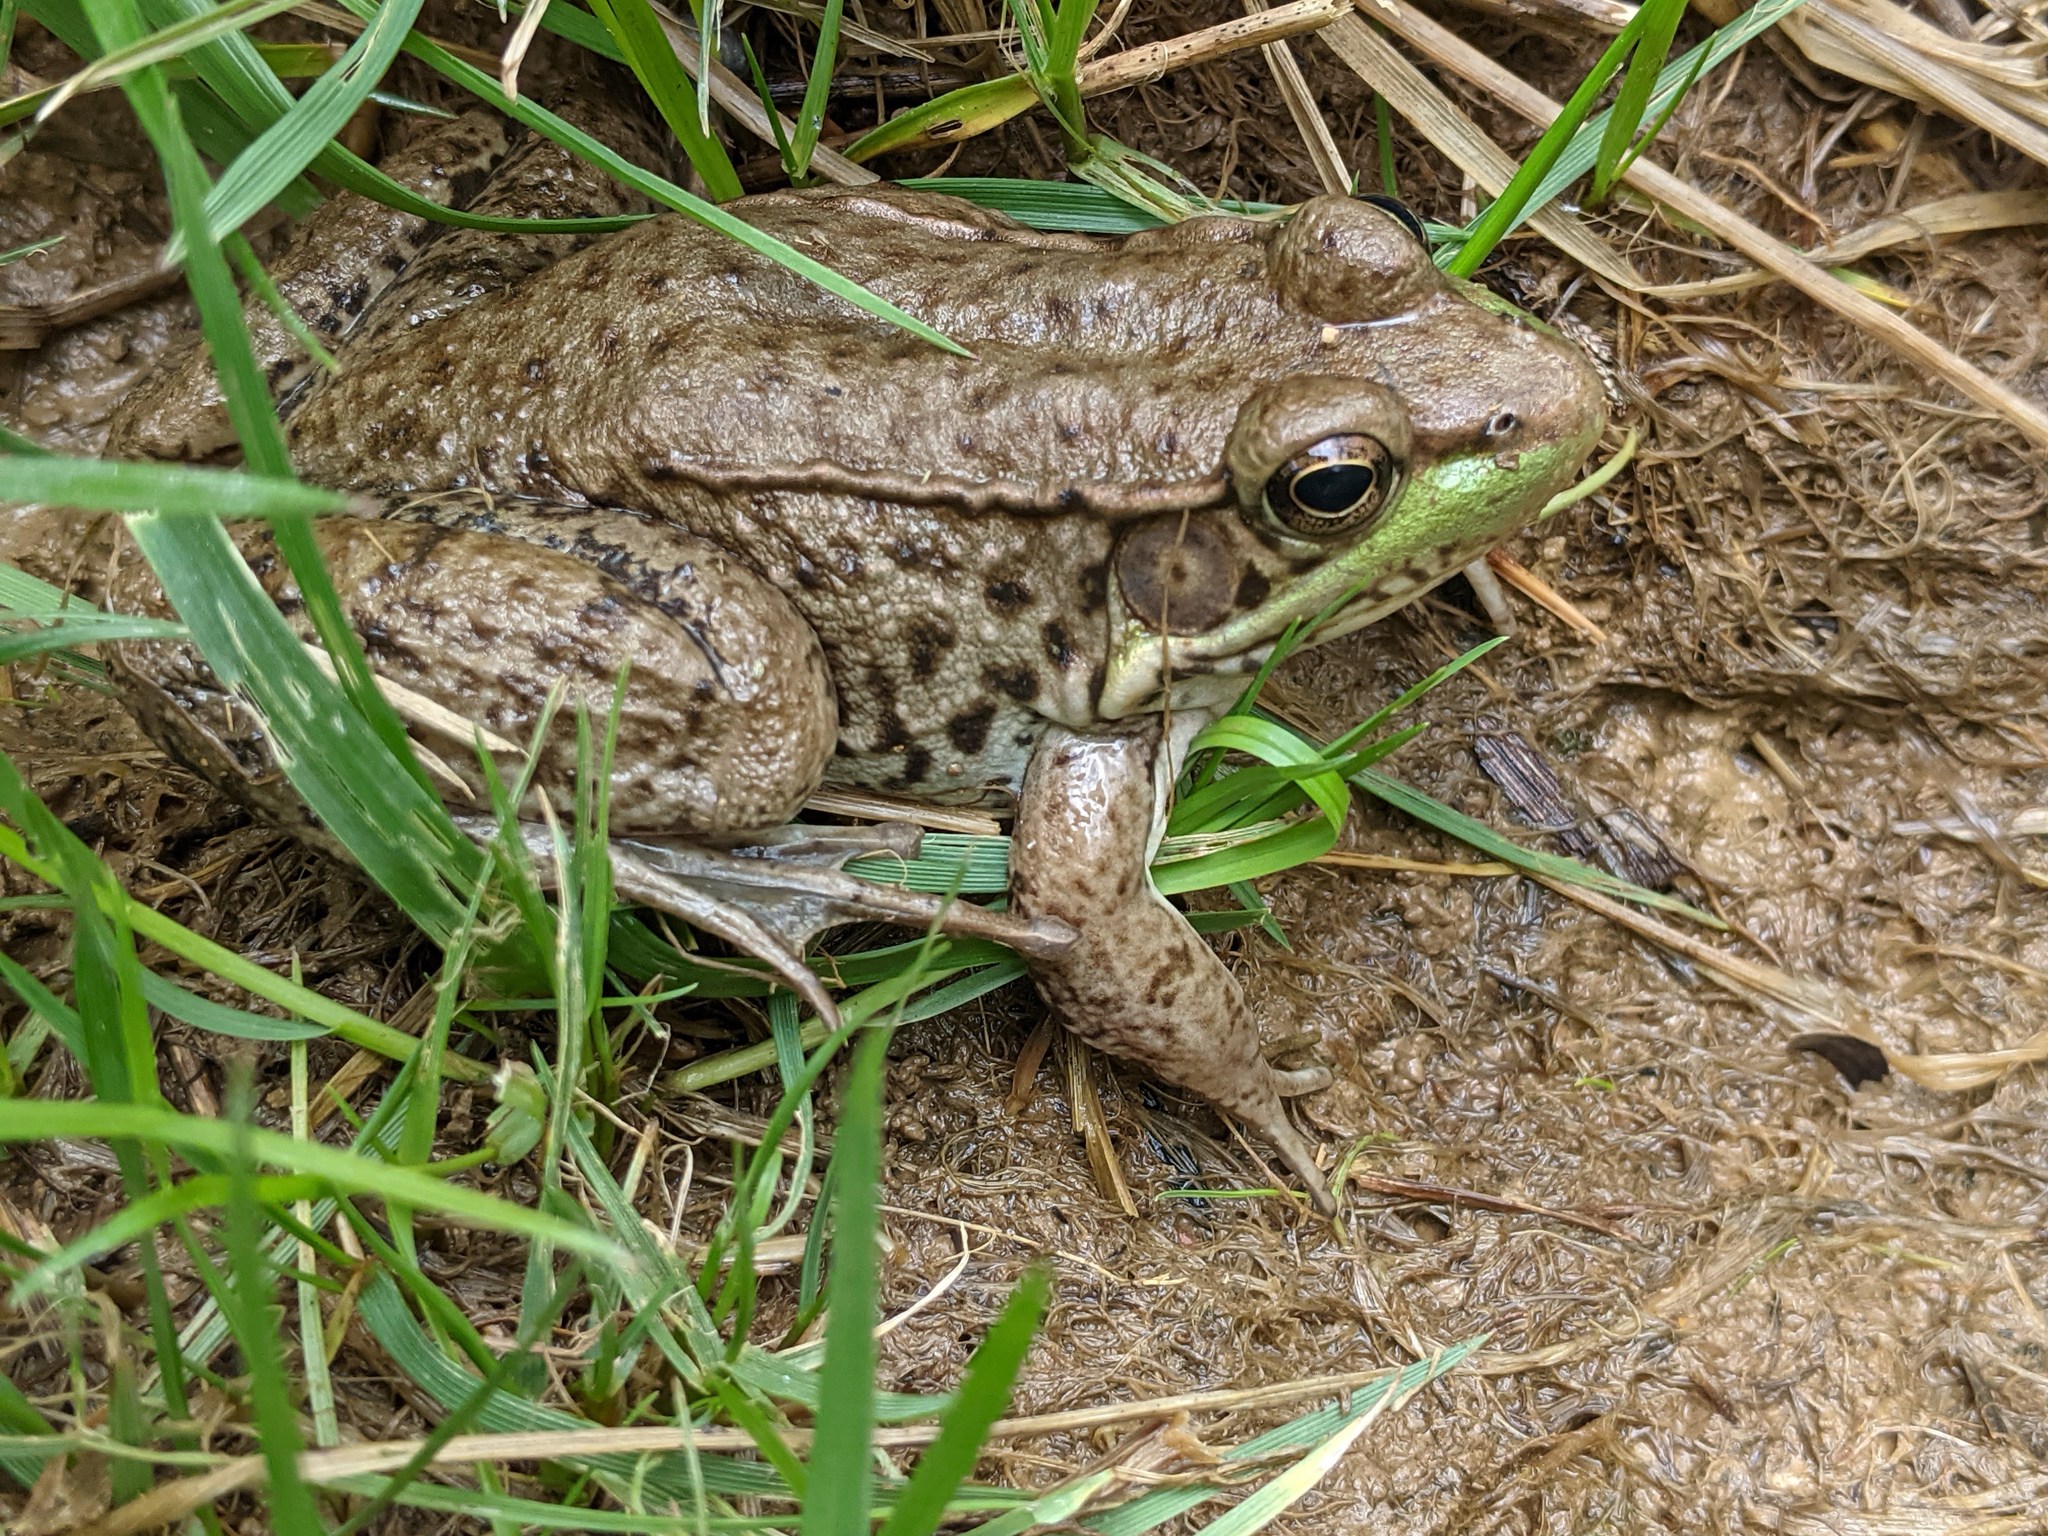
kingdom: Animalia
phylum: Chordata
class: Amphibia
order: Anura
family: Ranidae
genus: Lithobates
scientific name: Lithobates clamitans
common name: Green frog
